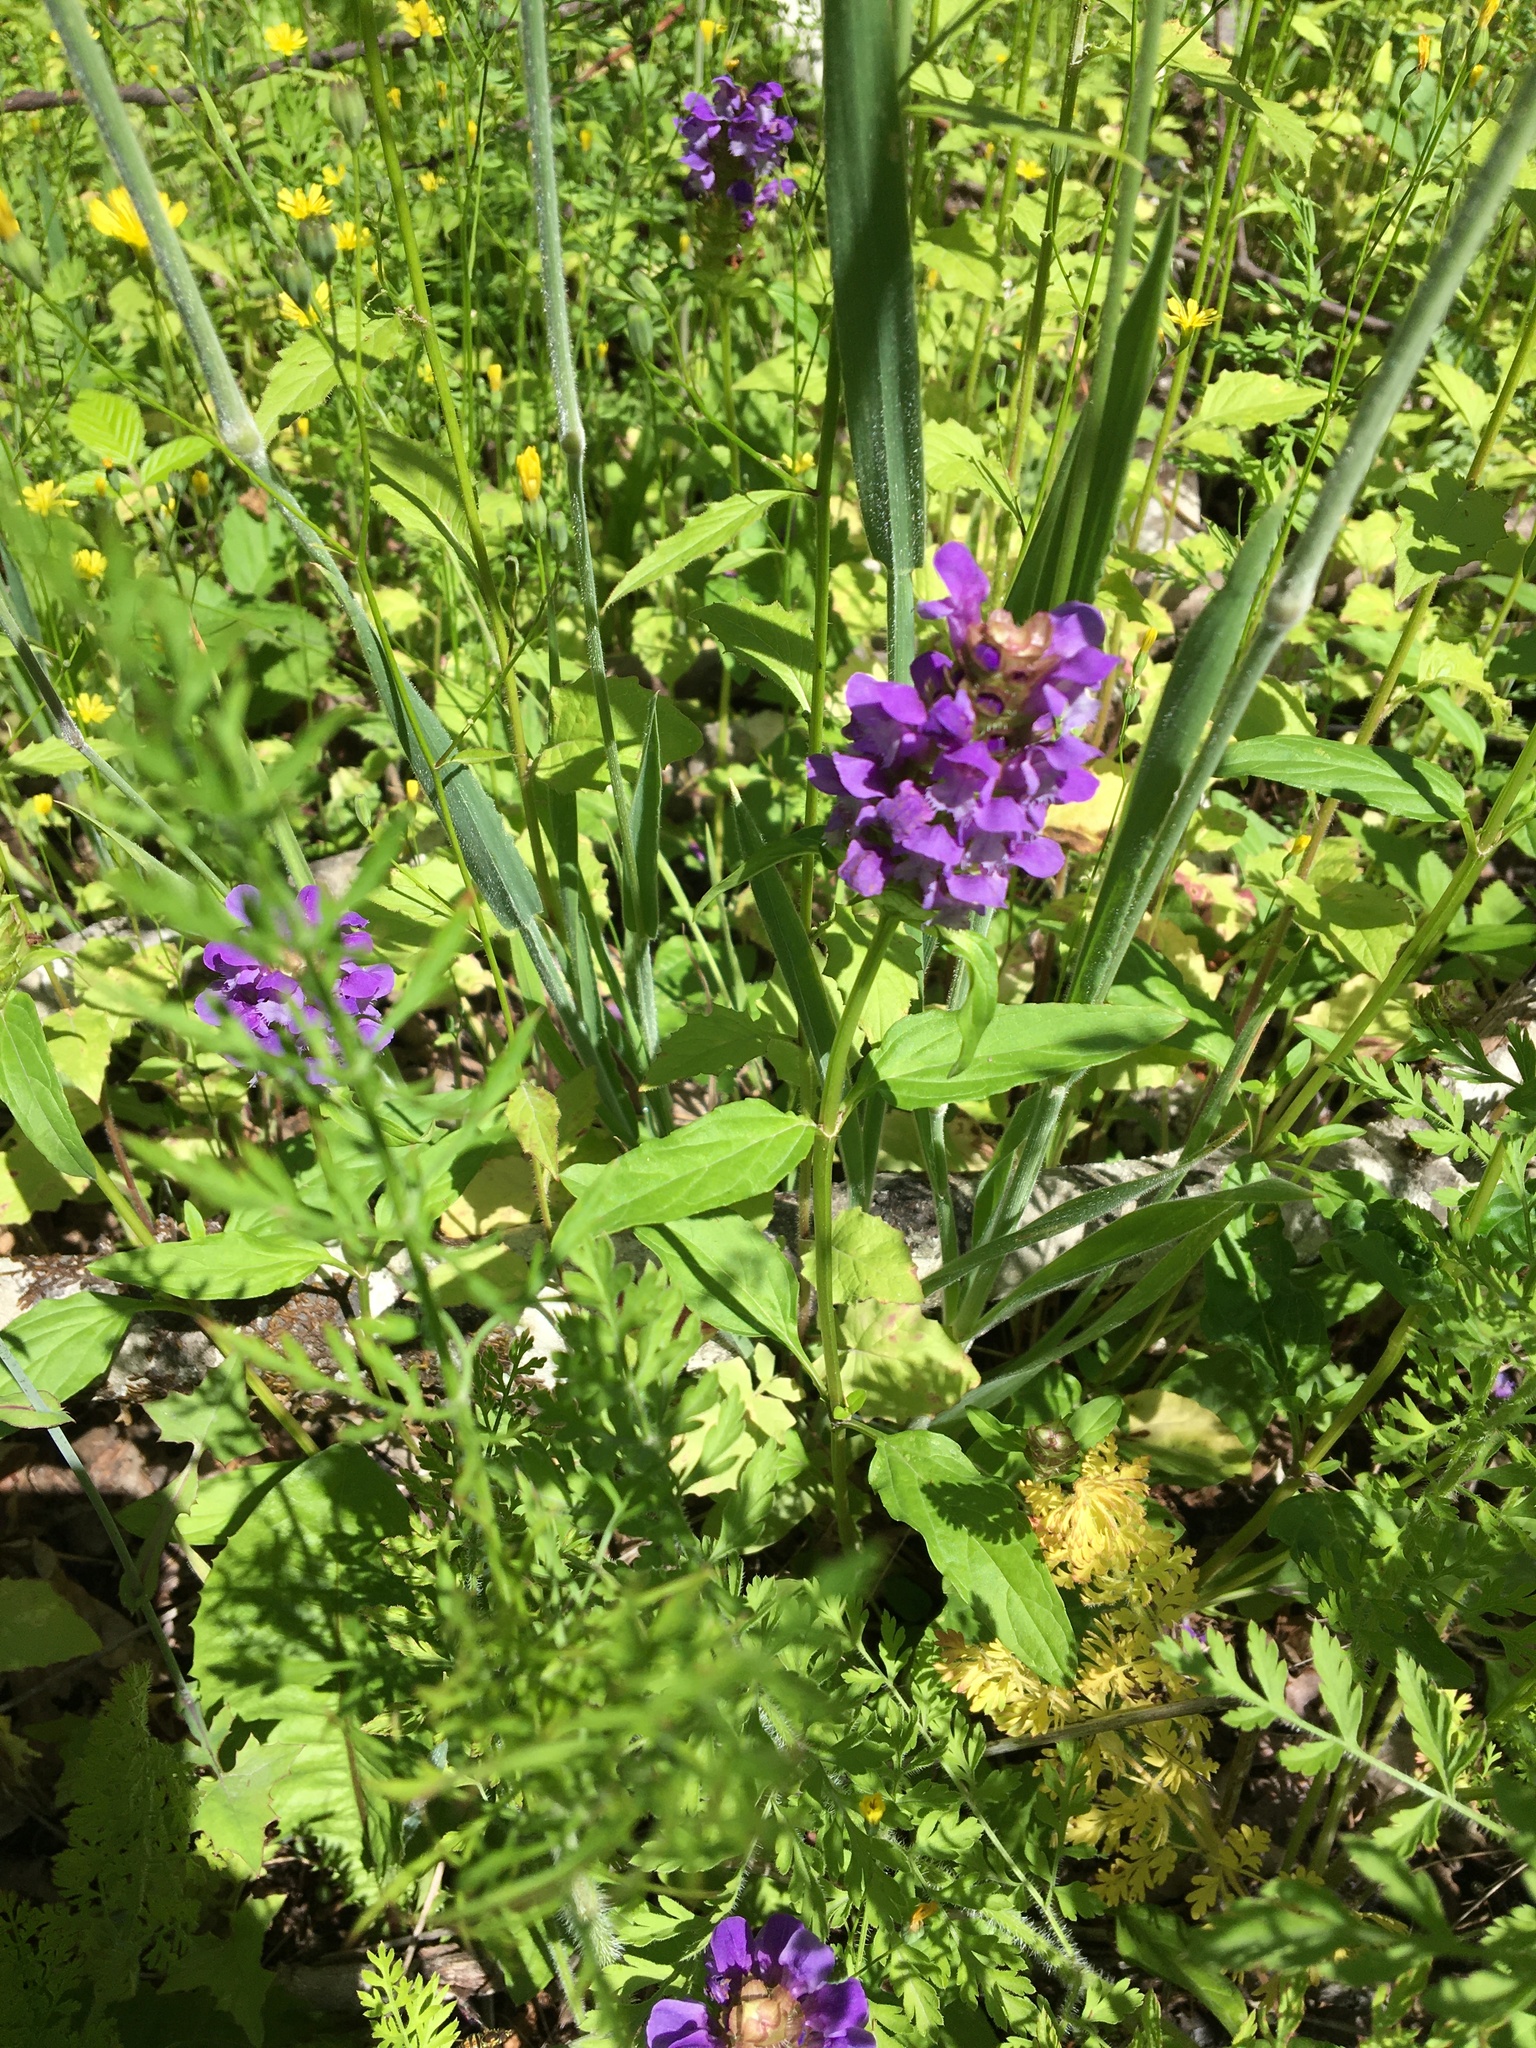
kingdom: Plantae
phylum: Tracheophyta
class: Magnoliopsida
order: Lamiales
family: Lamiaceae
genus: Prunella
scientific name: Prunella vulgaris
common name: Heal-all
